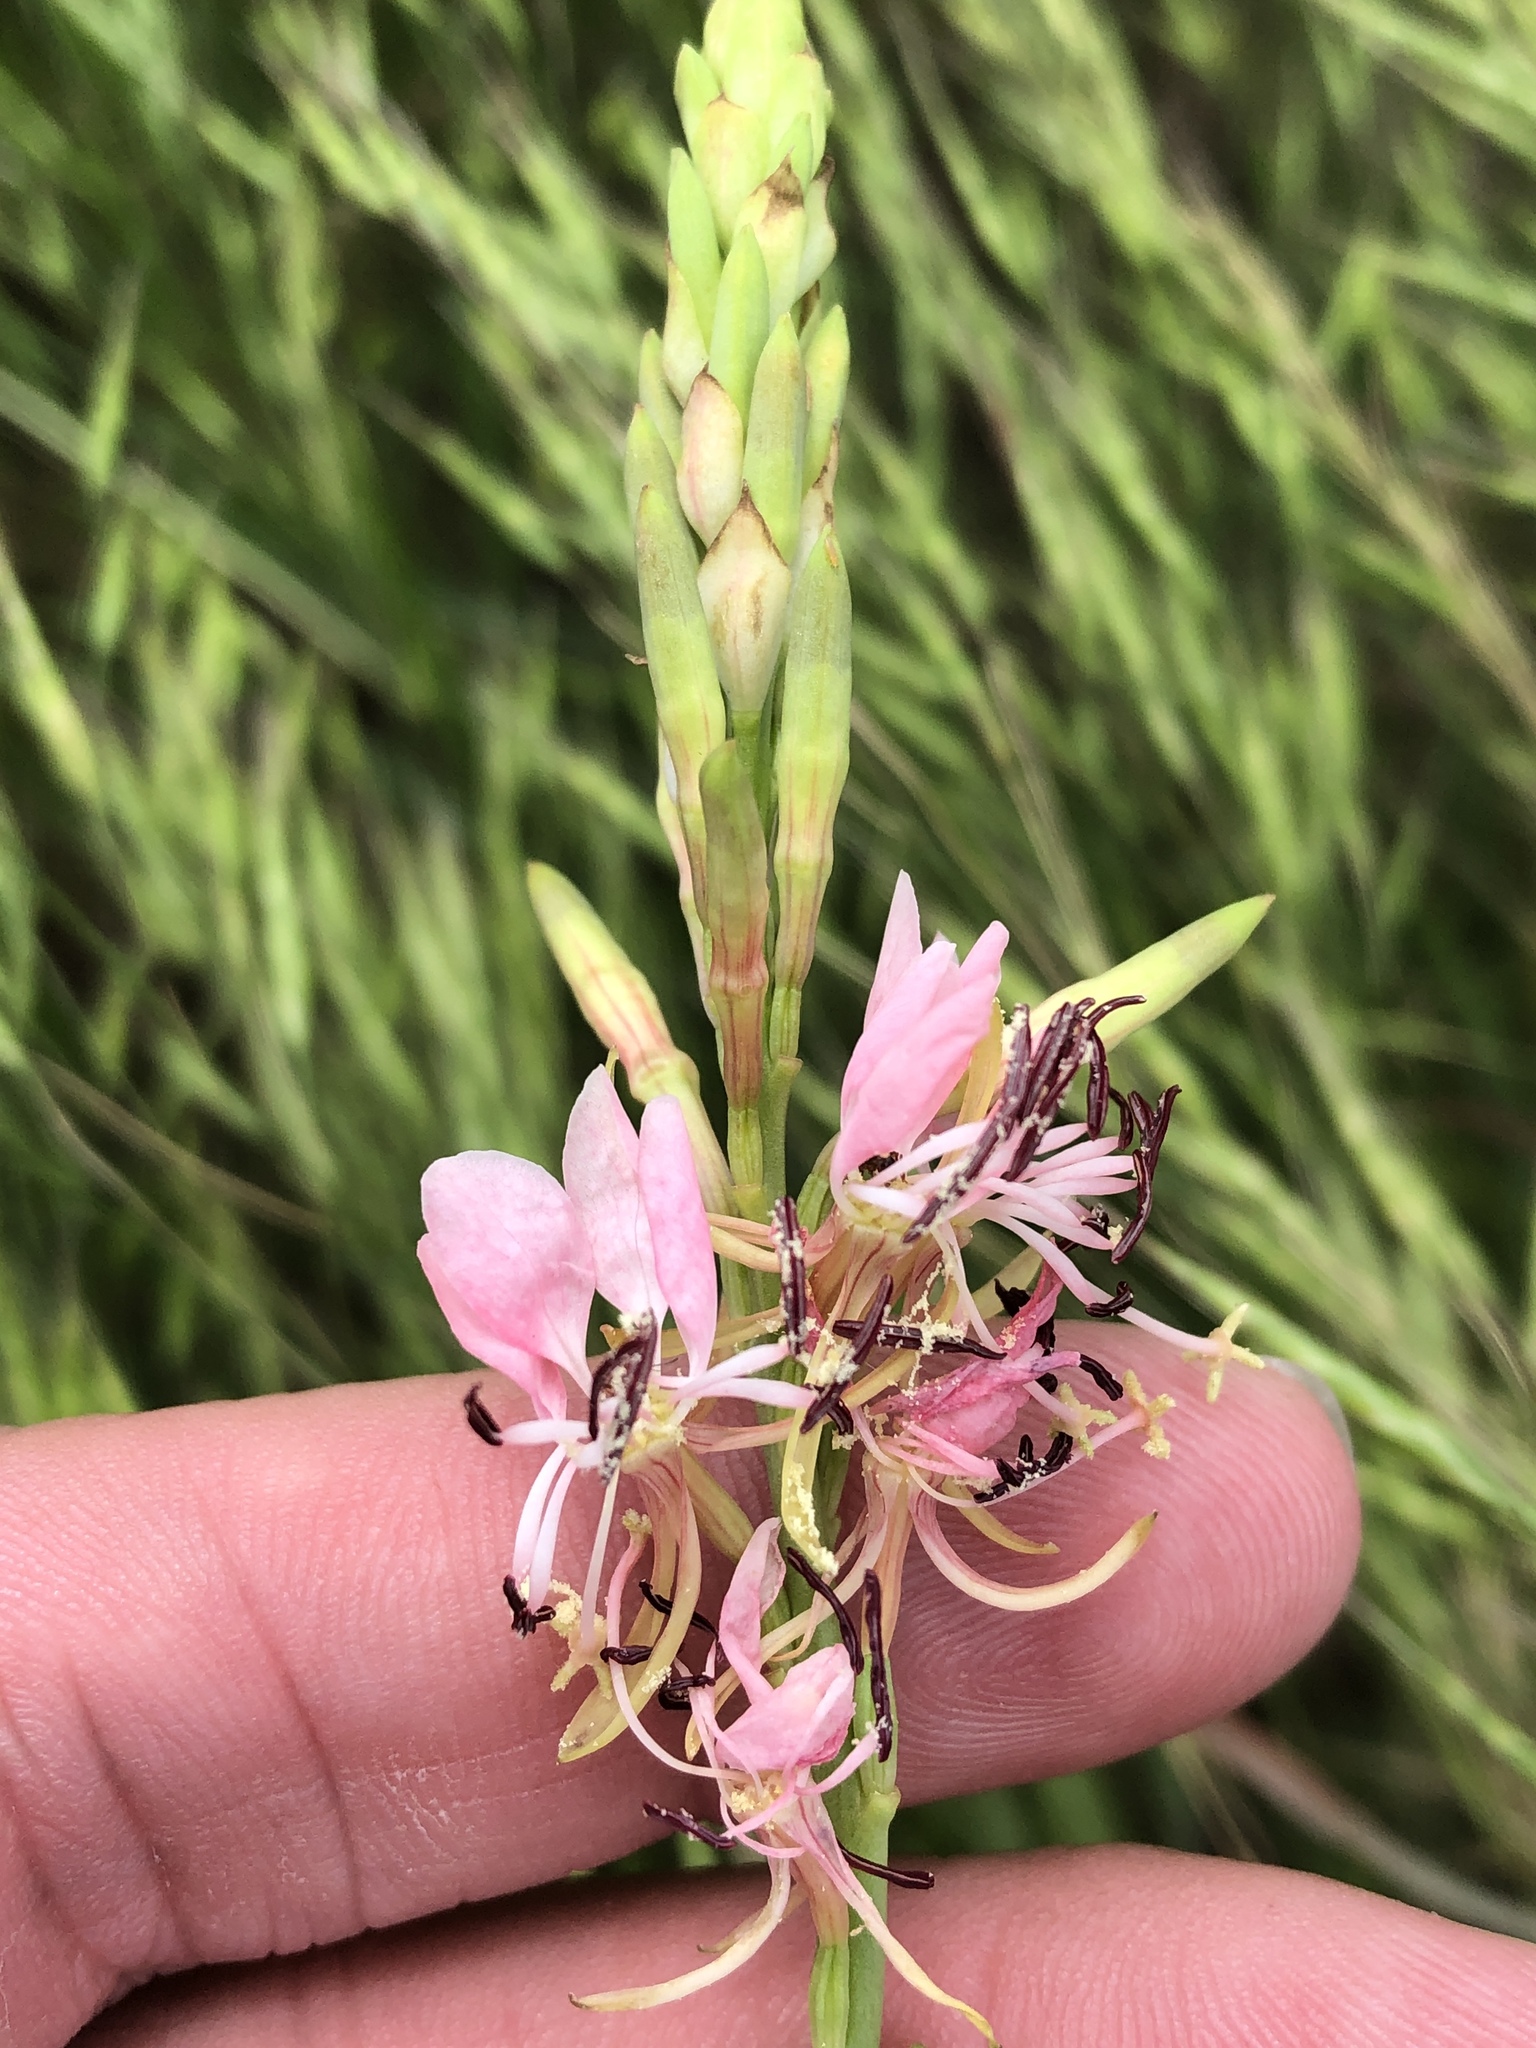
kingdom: Plantae
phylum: Tracheophyta
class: Magnoliopsida
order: Myrtales
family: Onagraceae
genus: Oenothera
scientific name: Oenothera suffulta
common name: Kisses
